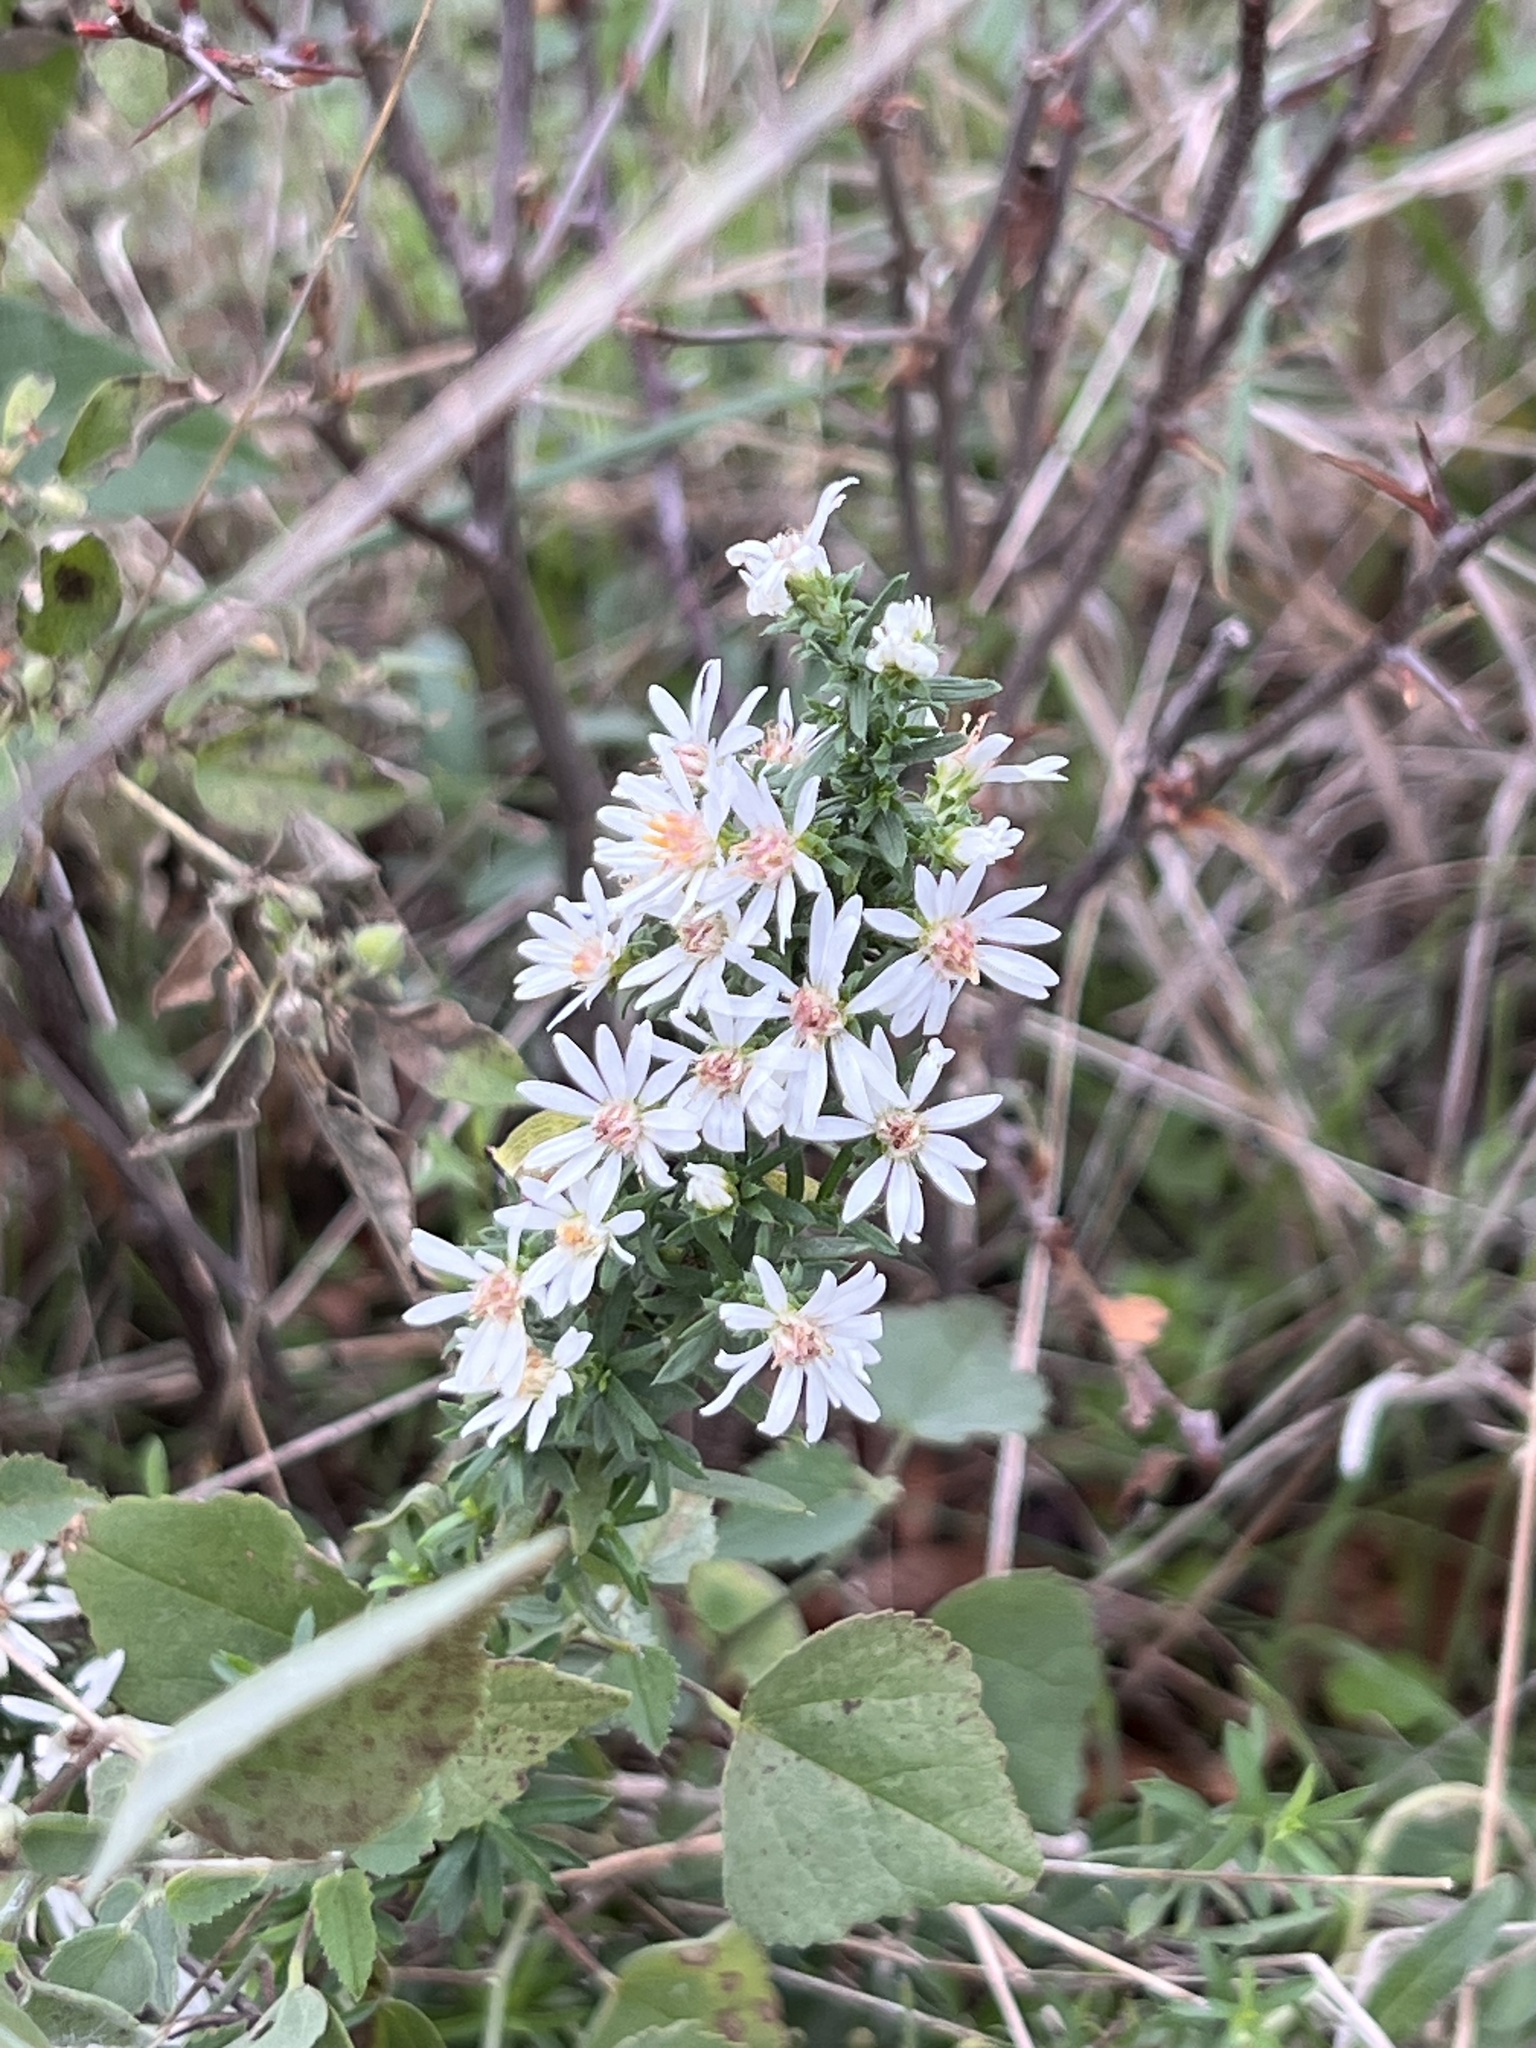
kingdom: Plantae
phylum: Tracheophyta
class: Magnoliopsida
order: Asterales
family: Asteraceae
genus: Symphyotrichum
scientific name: Symphyotrichum ericoides
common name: Heath aster
